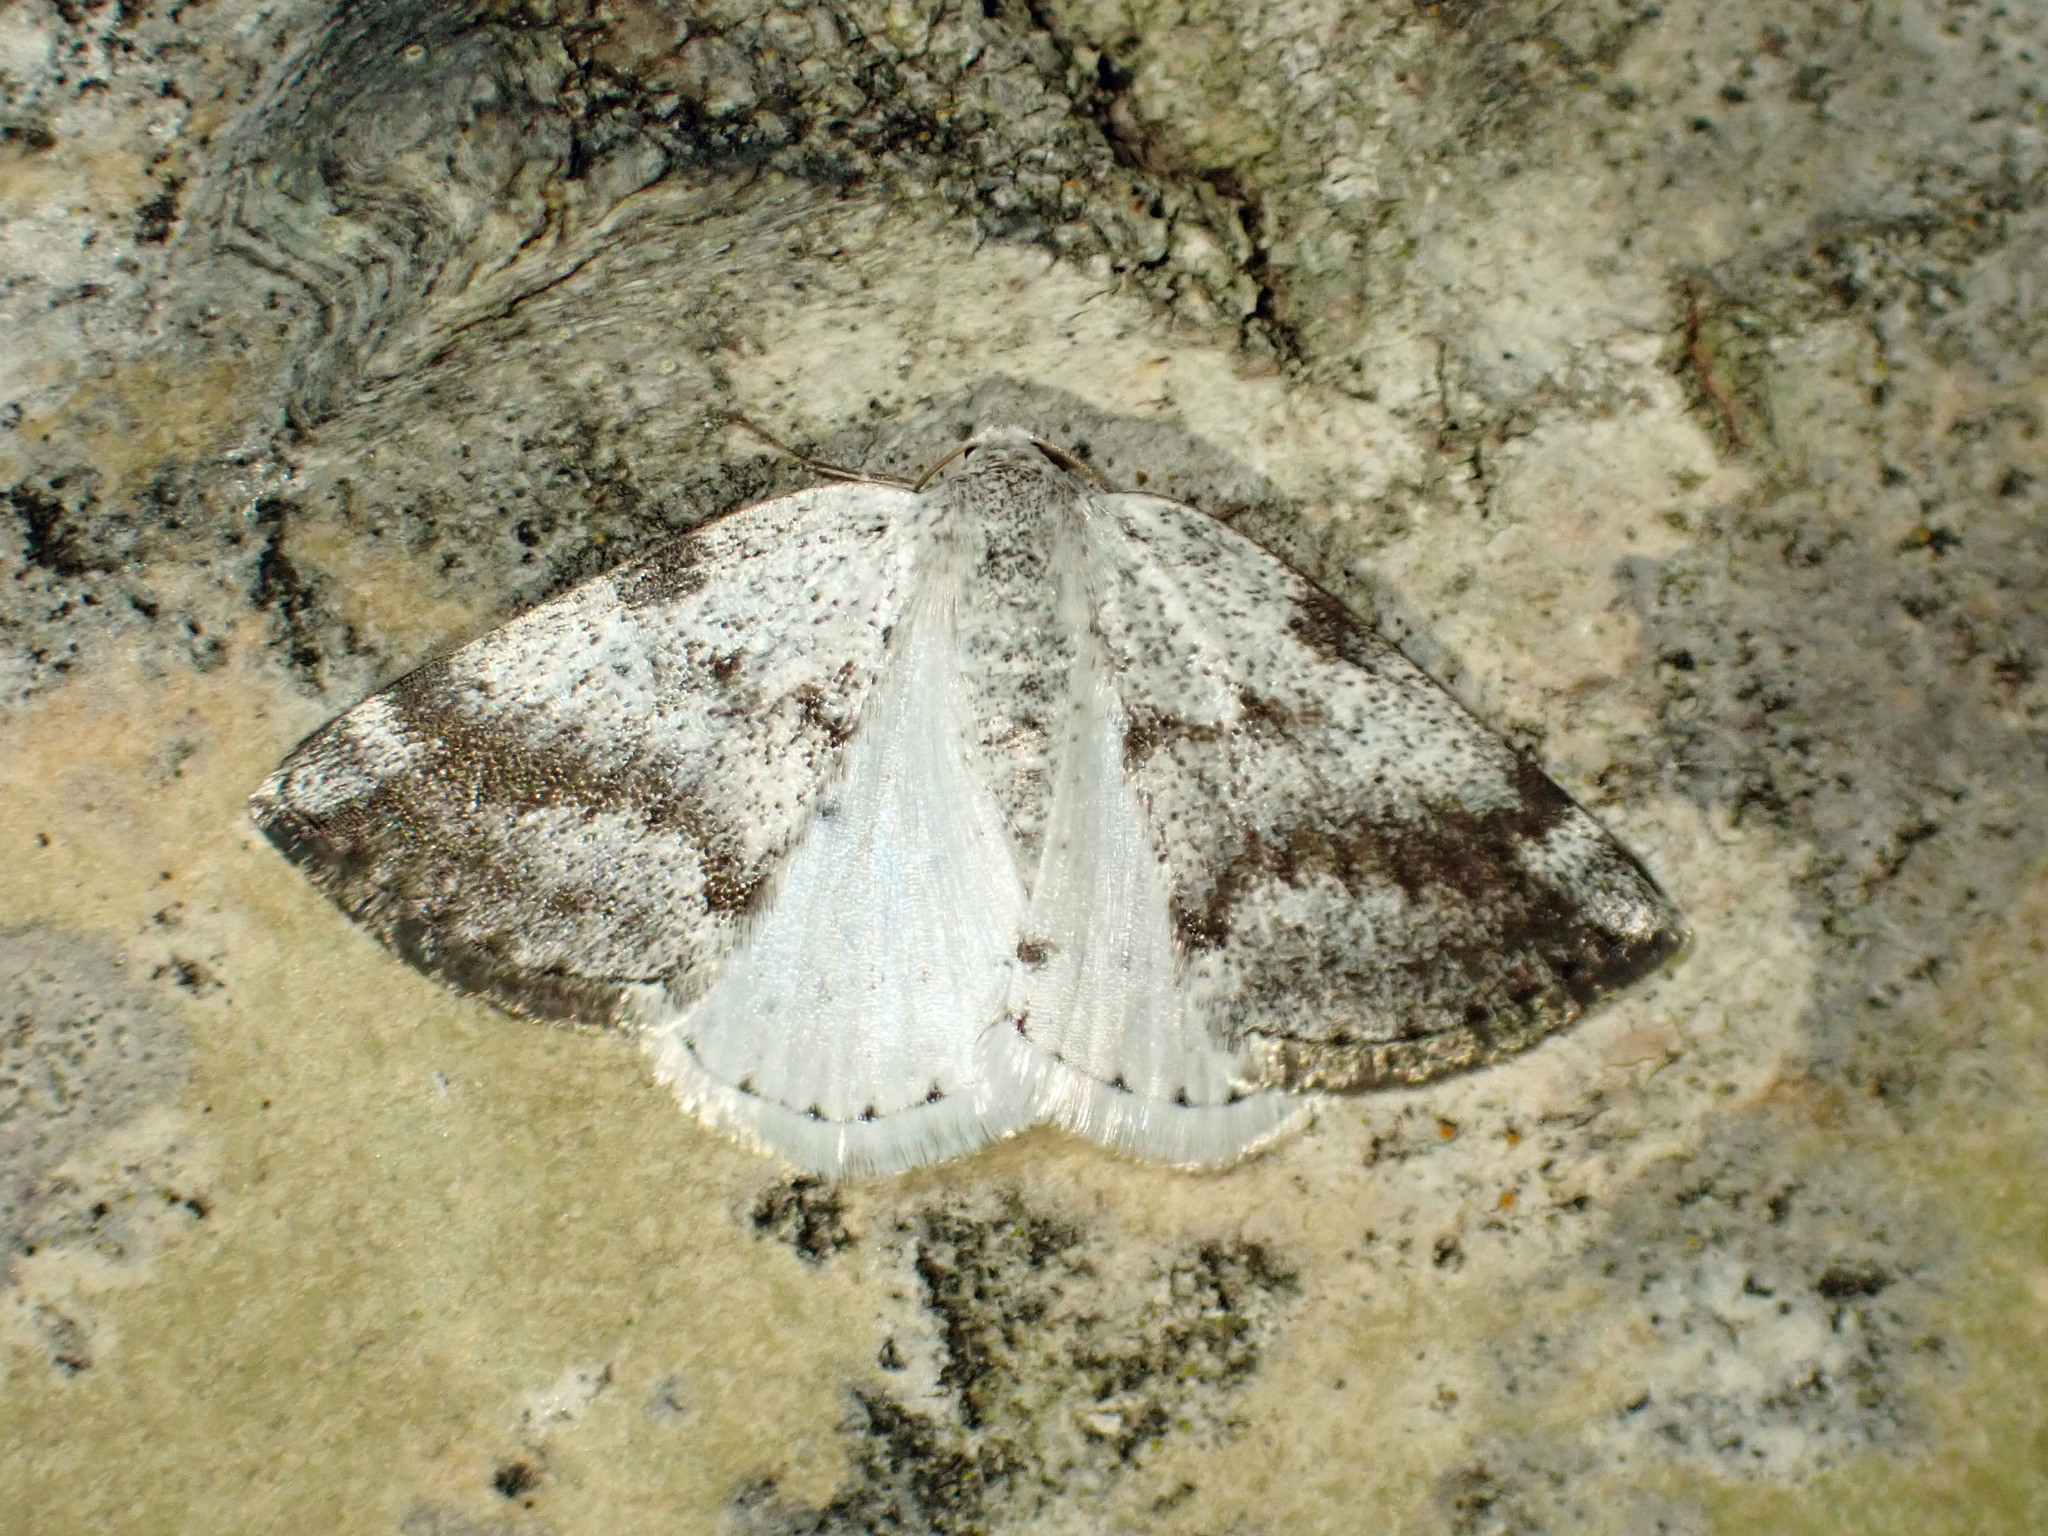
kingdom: Animalia
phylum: Arthropoda
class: Insecta
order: Lepidoptera
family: Geometridae
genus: Lomographa
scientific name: Lomographa semiclarata
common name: Bluish spring moth
